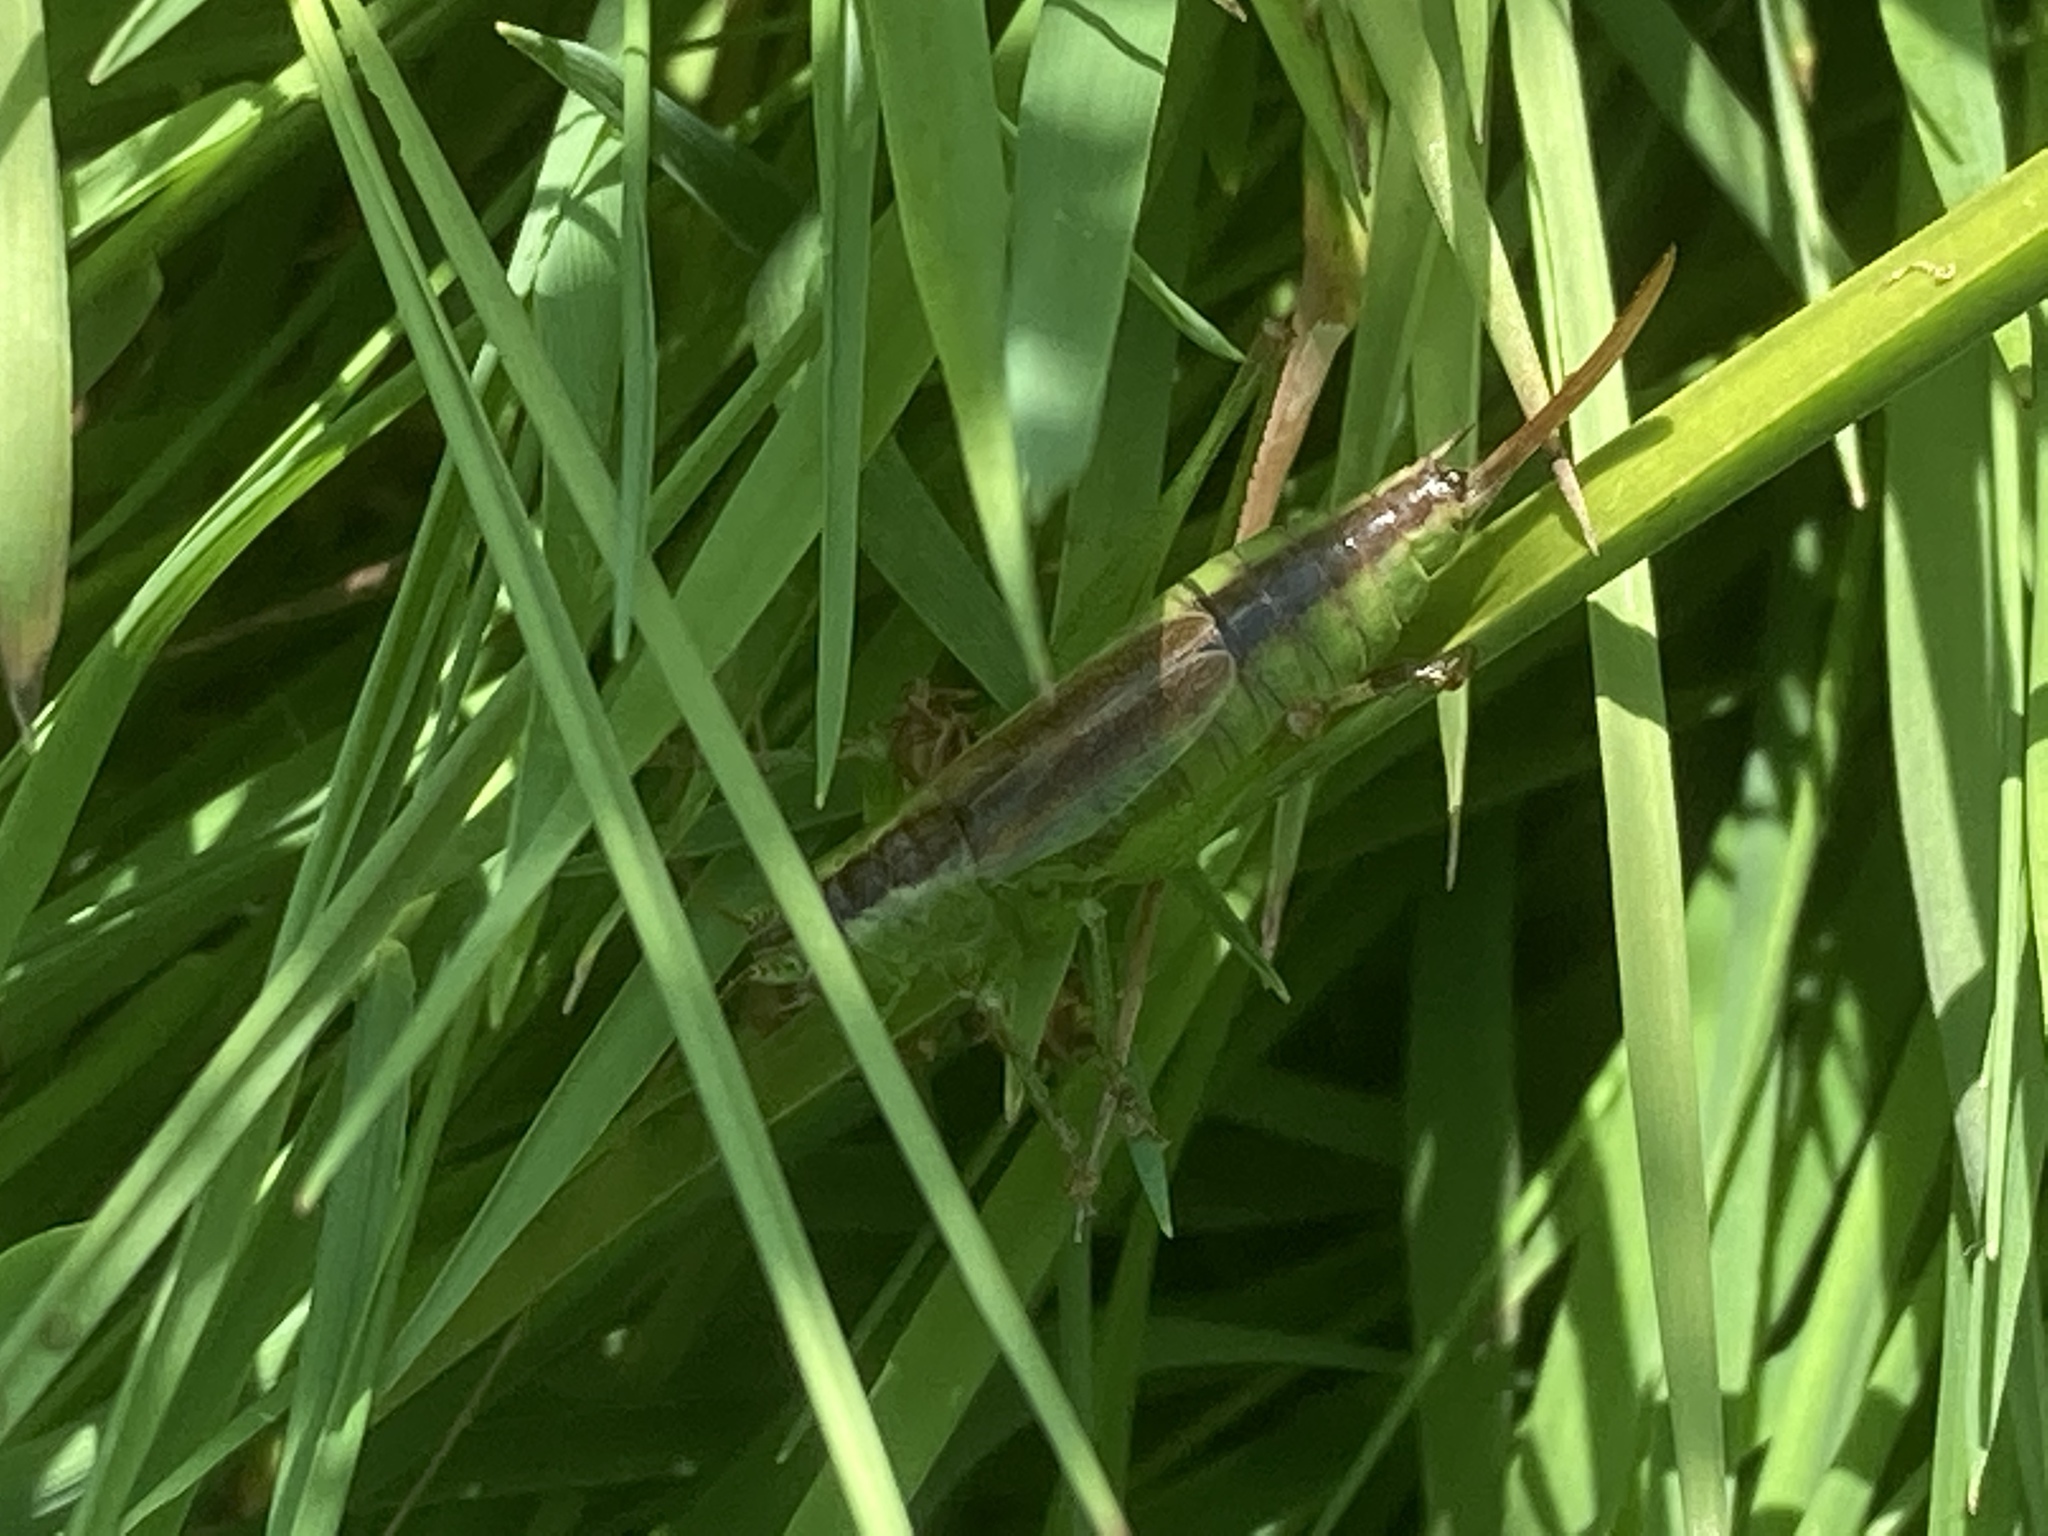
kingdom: Animalia
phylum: Arthropoda
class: Insecta
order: Orthoptera
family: Tettigoniidae
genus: Conocephalus
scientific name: Conocephalus dorsalis
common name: Short-winged conehead
